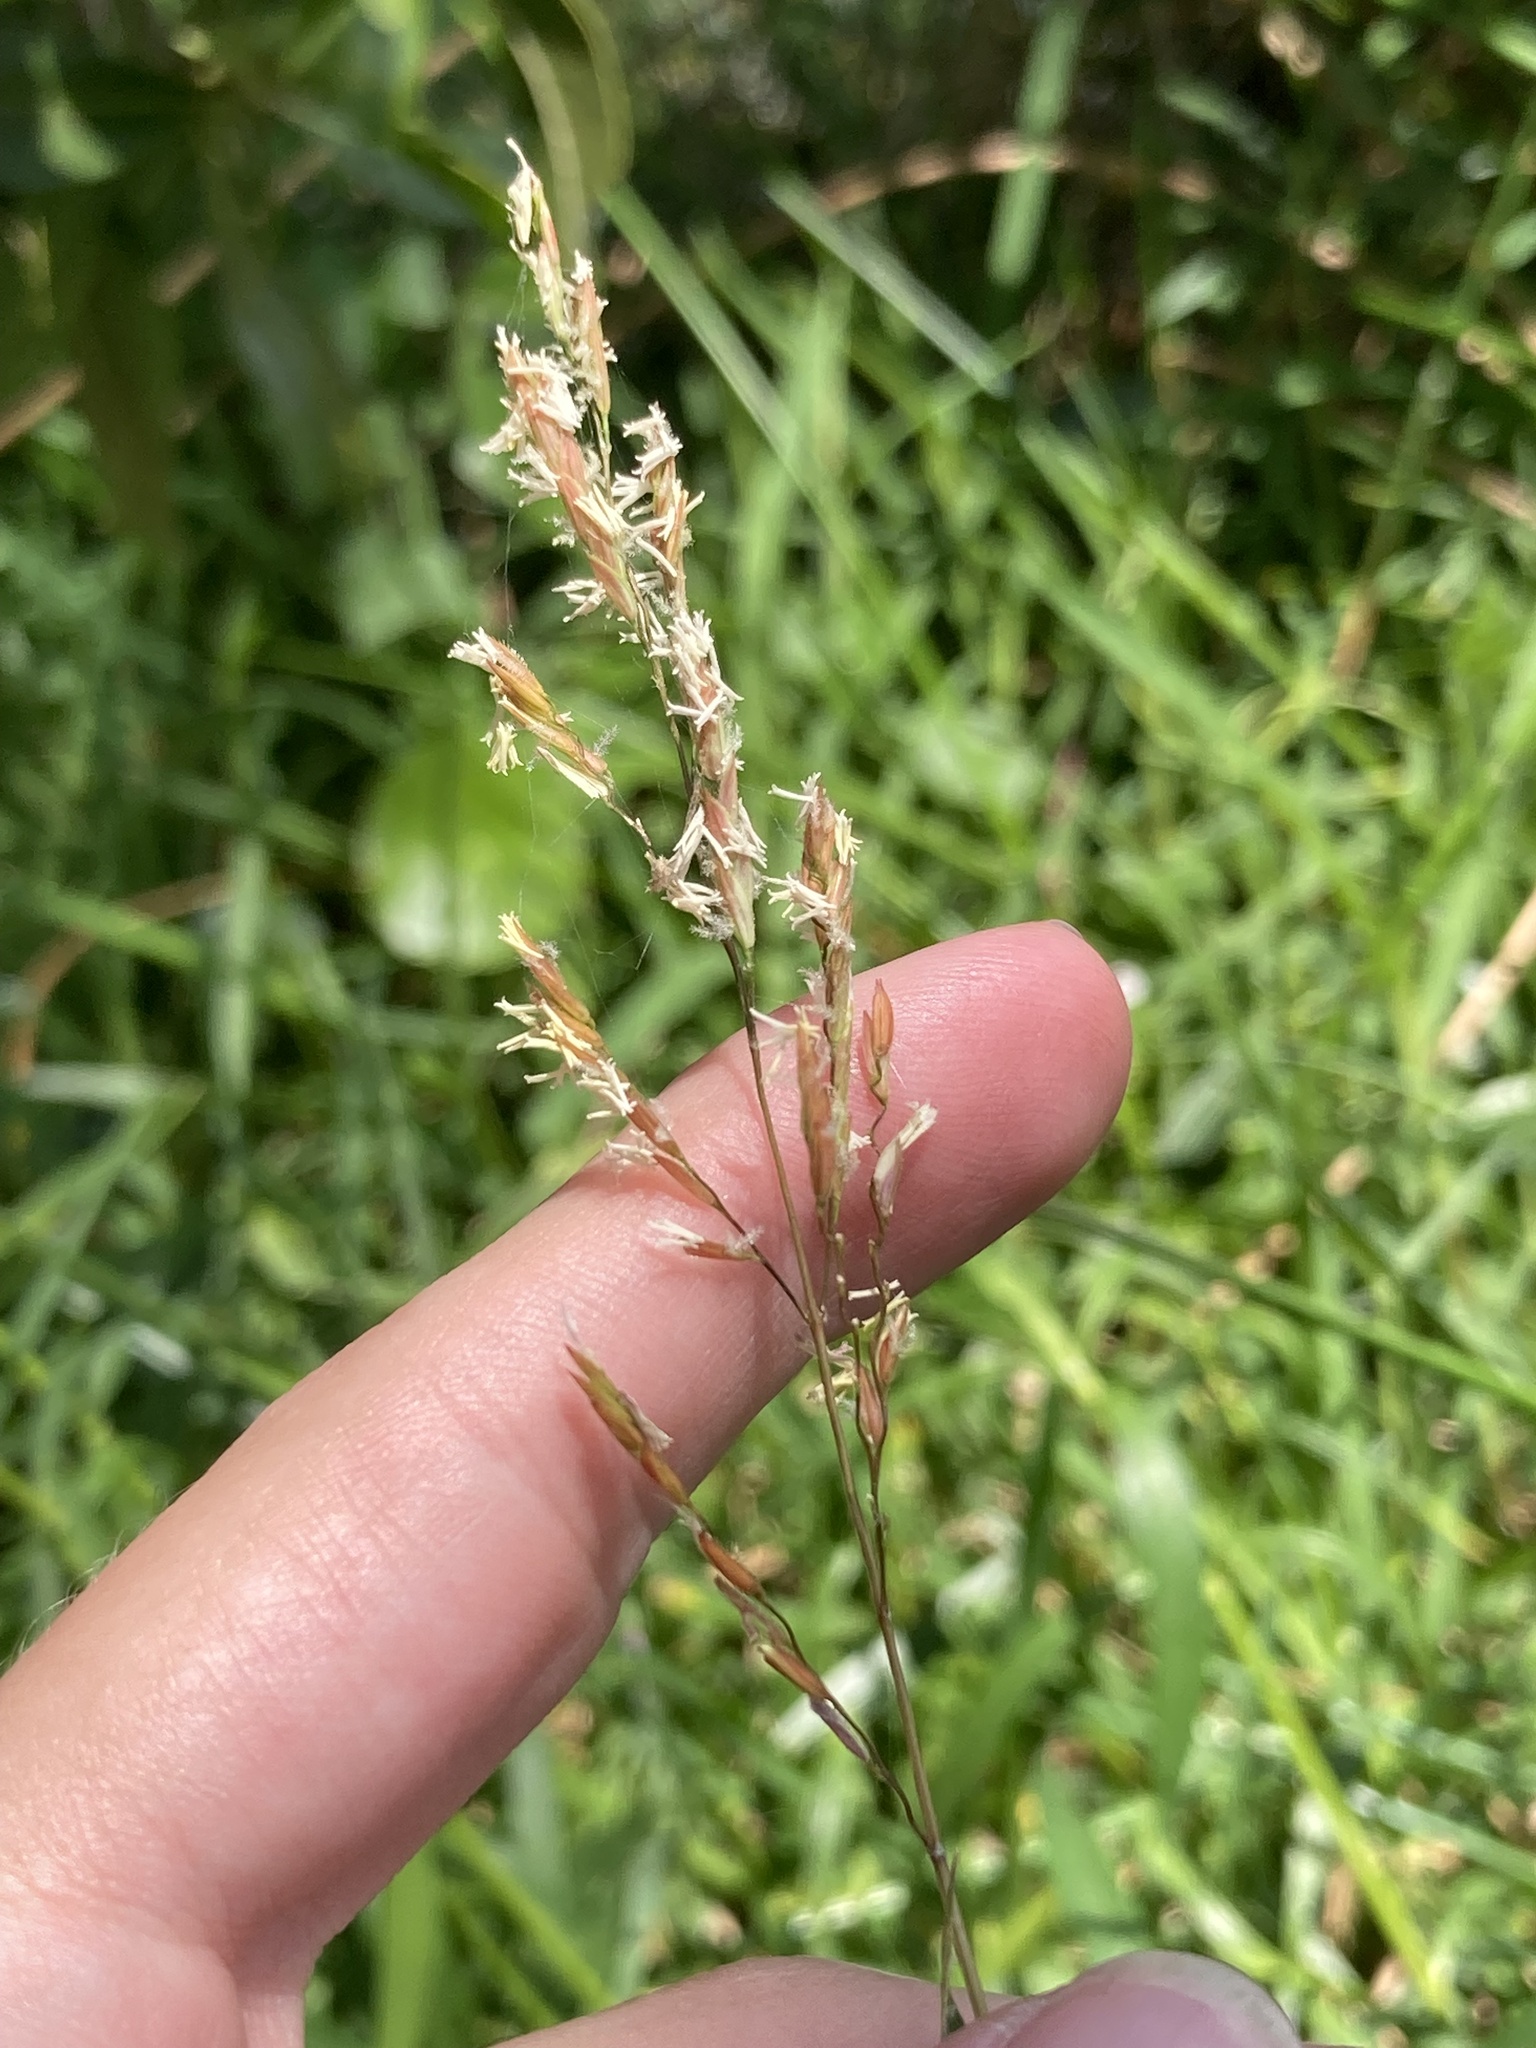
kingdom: Plantae
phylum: Tracheophyta
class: Liliopsida
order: Poales
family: Poaceae
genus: Leersia
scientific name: Leersia hexandra
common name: Southern cut grass
